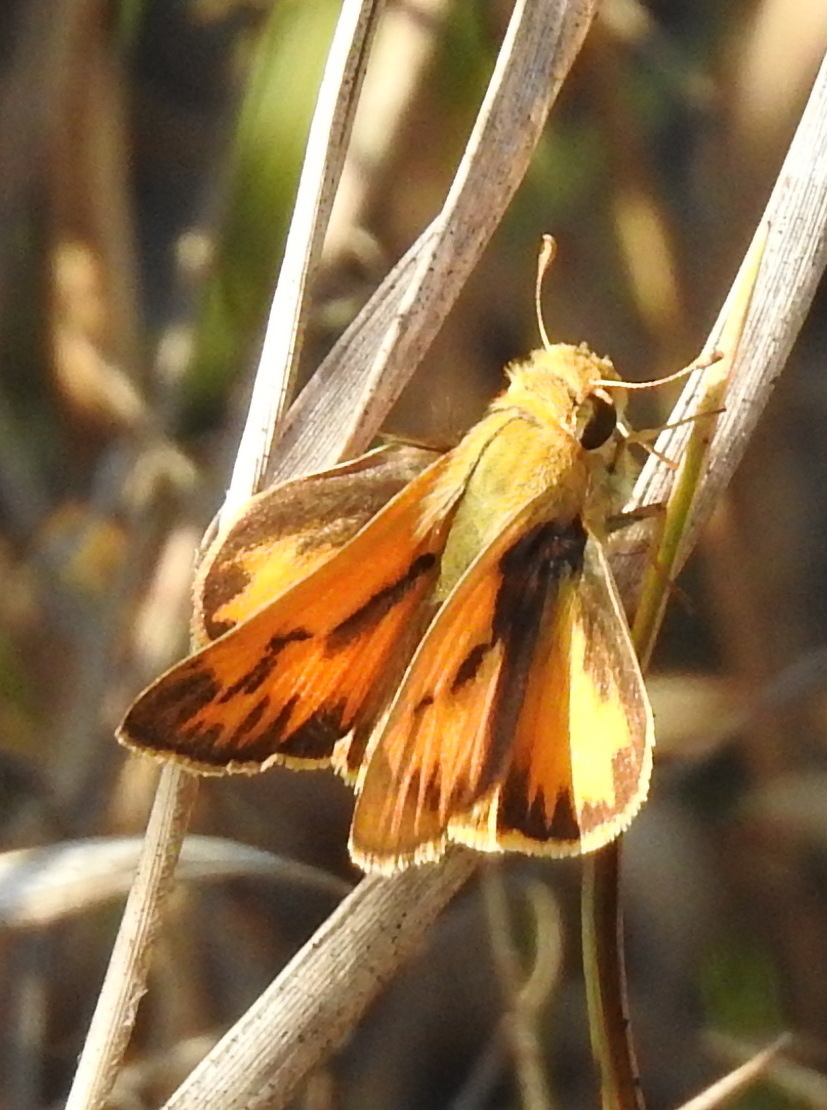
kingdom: Animalia
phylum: Arthropoda
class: Insecta
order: Lepidoptera
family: Hesperiidae
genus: Hylephila
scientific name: Hylephila phyleus
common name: Fiery skipper
